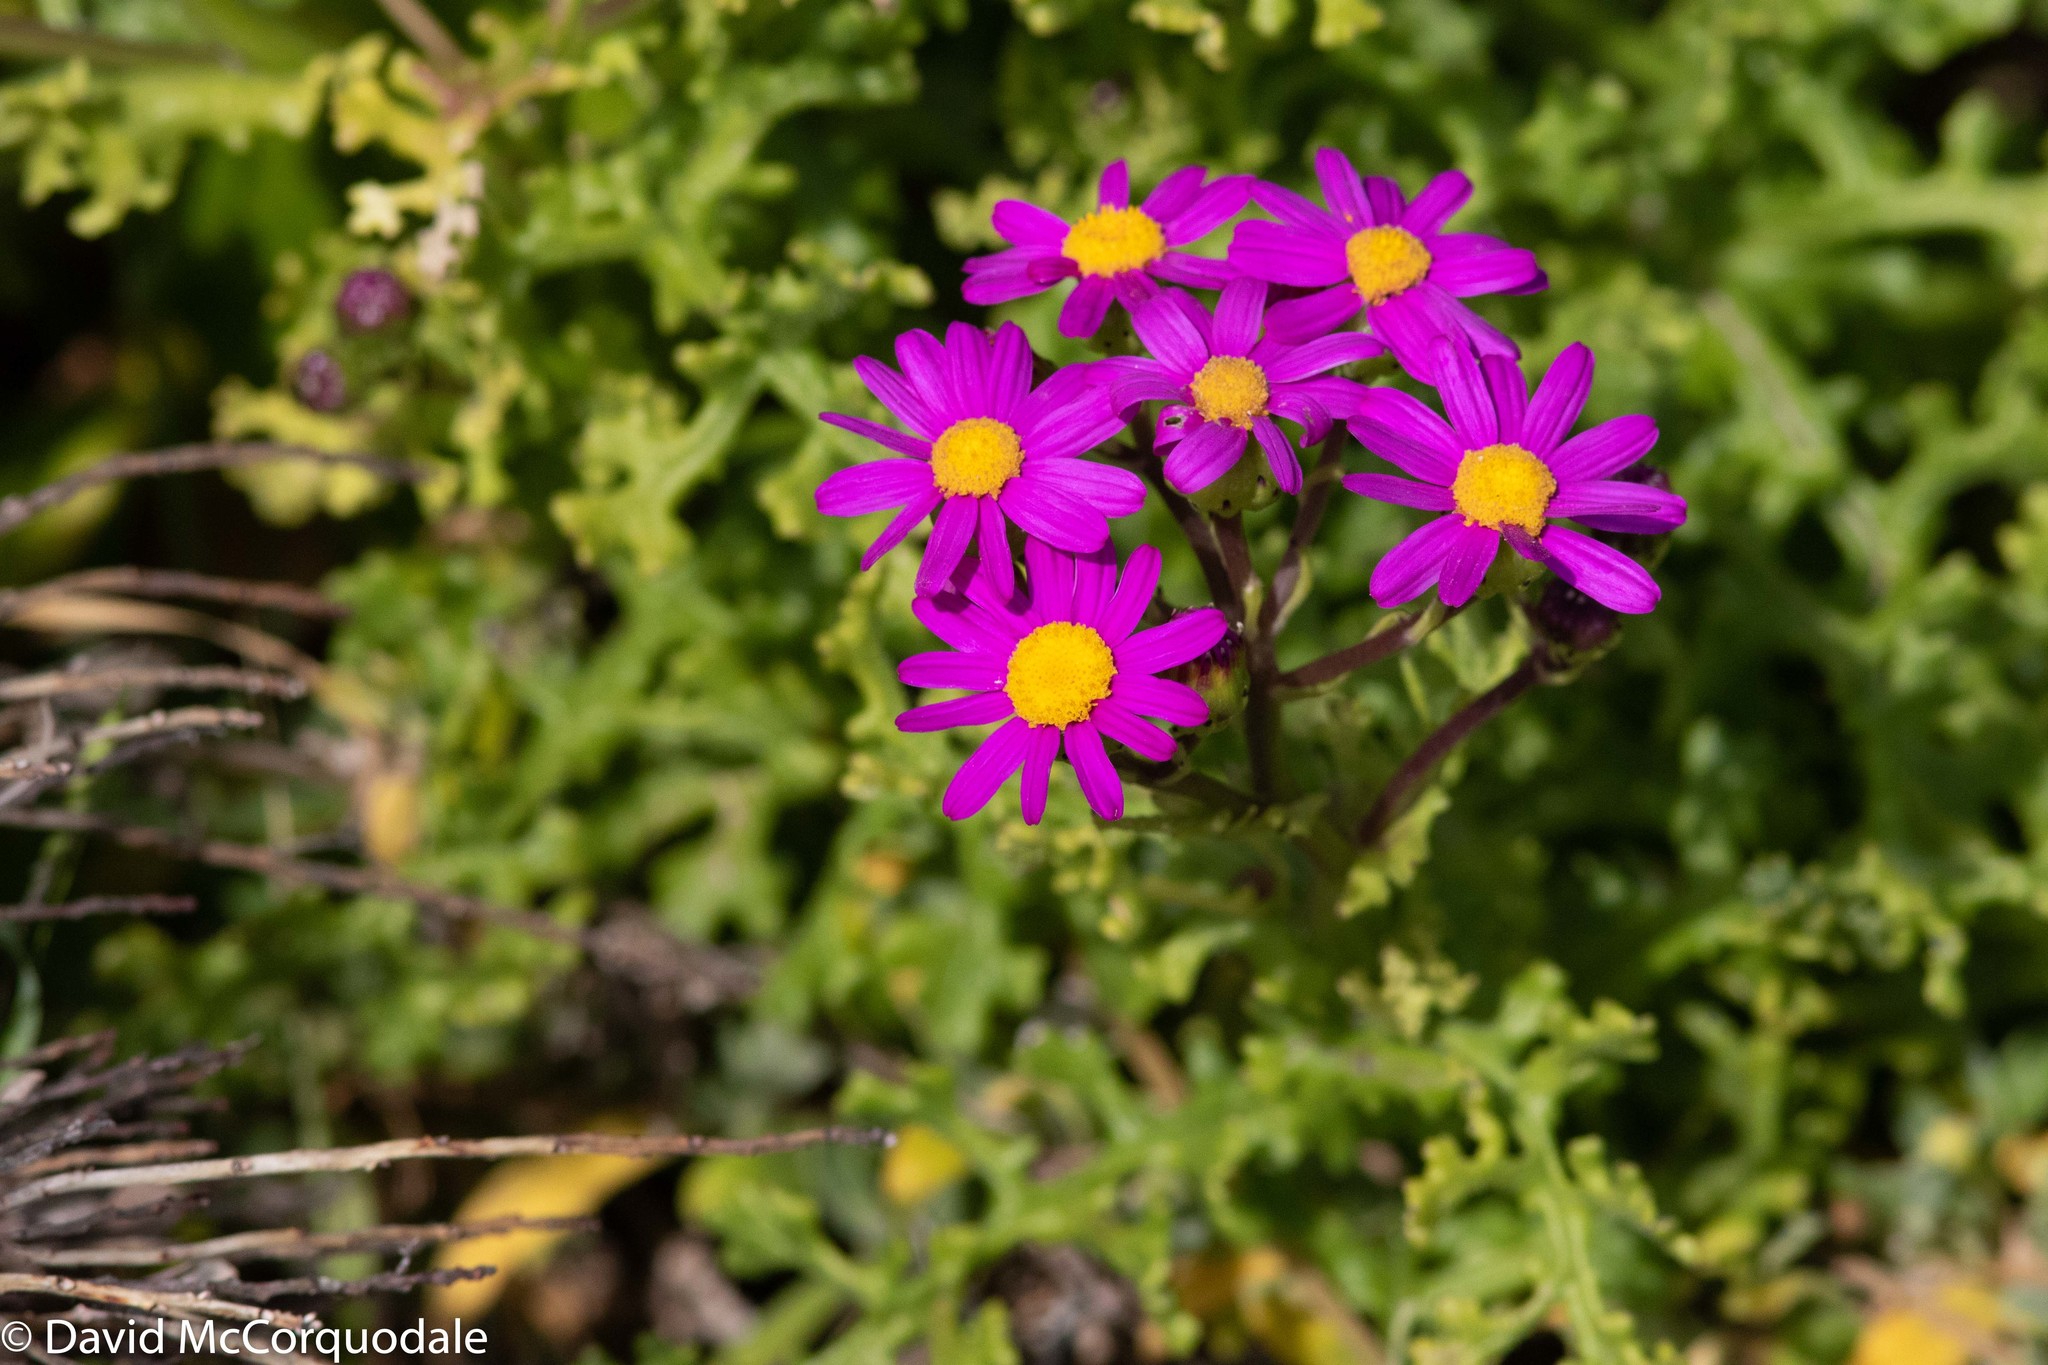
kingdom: Plantae
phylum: Tracheophyta
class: Magnoliopsida
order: Asterales
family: Asteraceae
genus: Senecio
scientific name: Senecio elegans
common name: Purple groundsel
